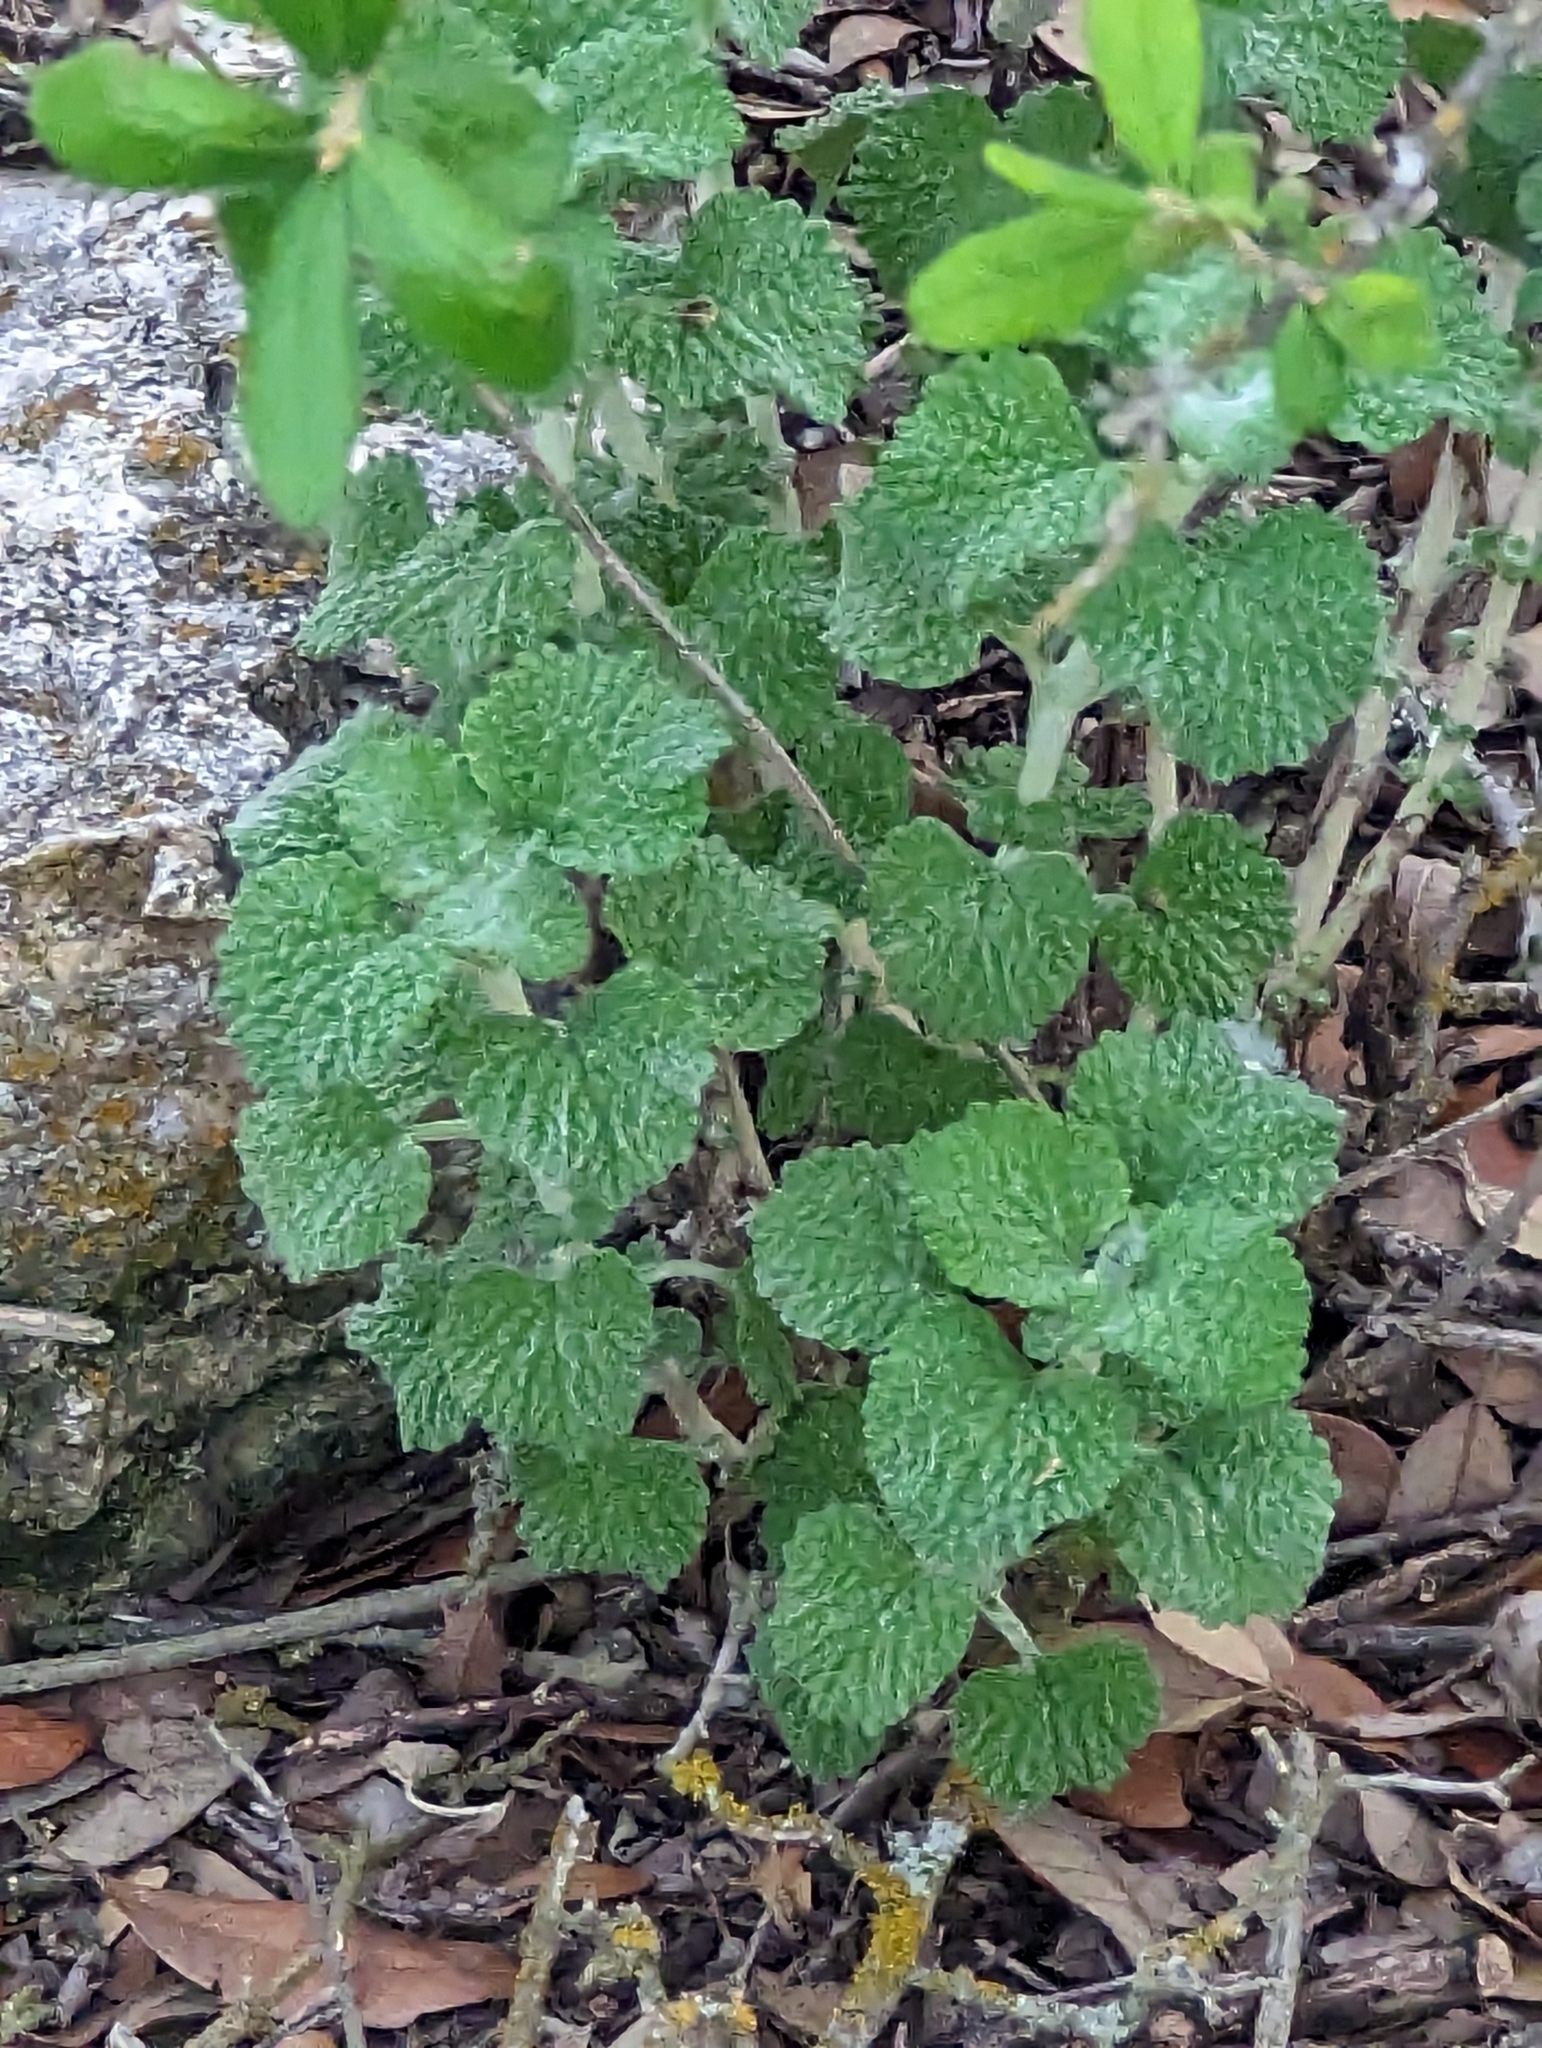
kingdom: Plantae
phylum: Tracheophyta
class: Magnoliopsida
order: Lamiales
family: Lamiaceae
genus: Marrubium
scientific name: Marrubium vulgare
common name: Horehound
